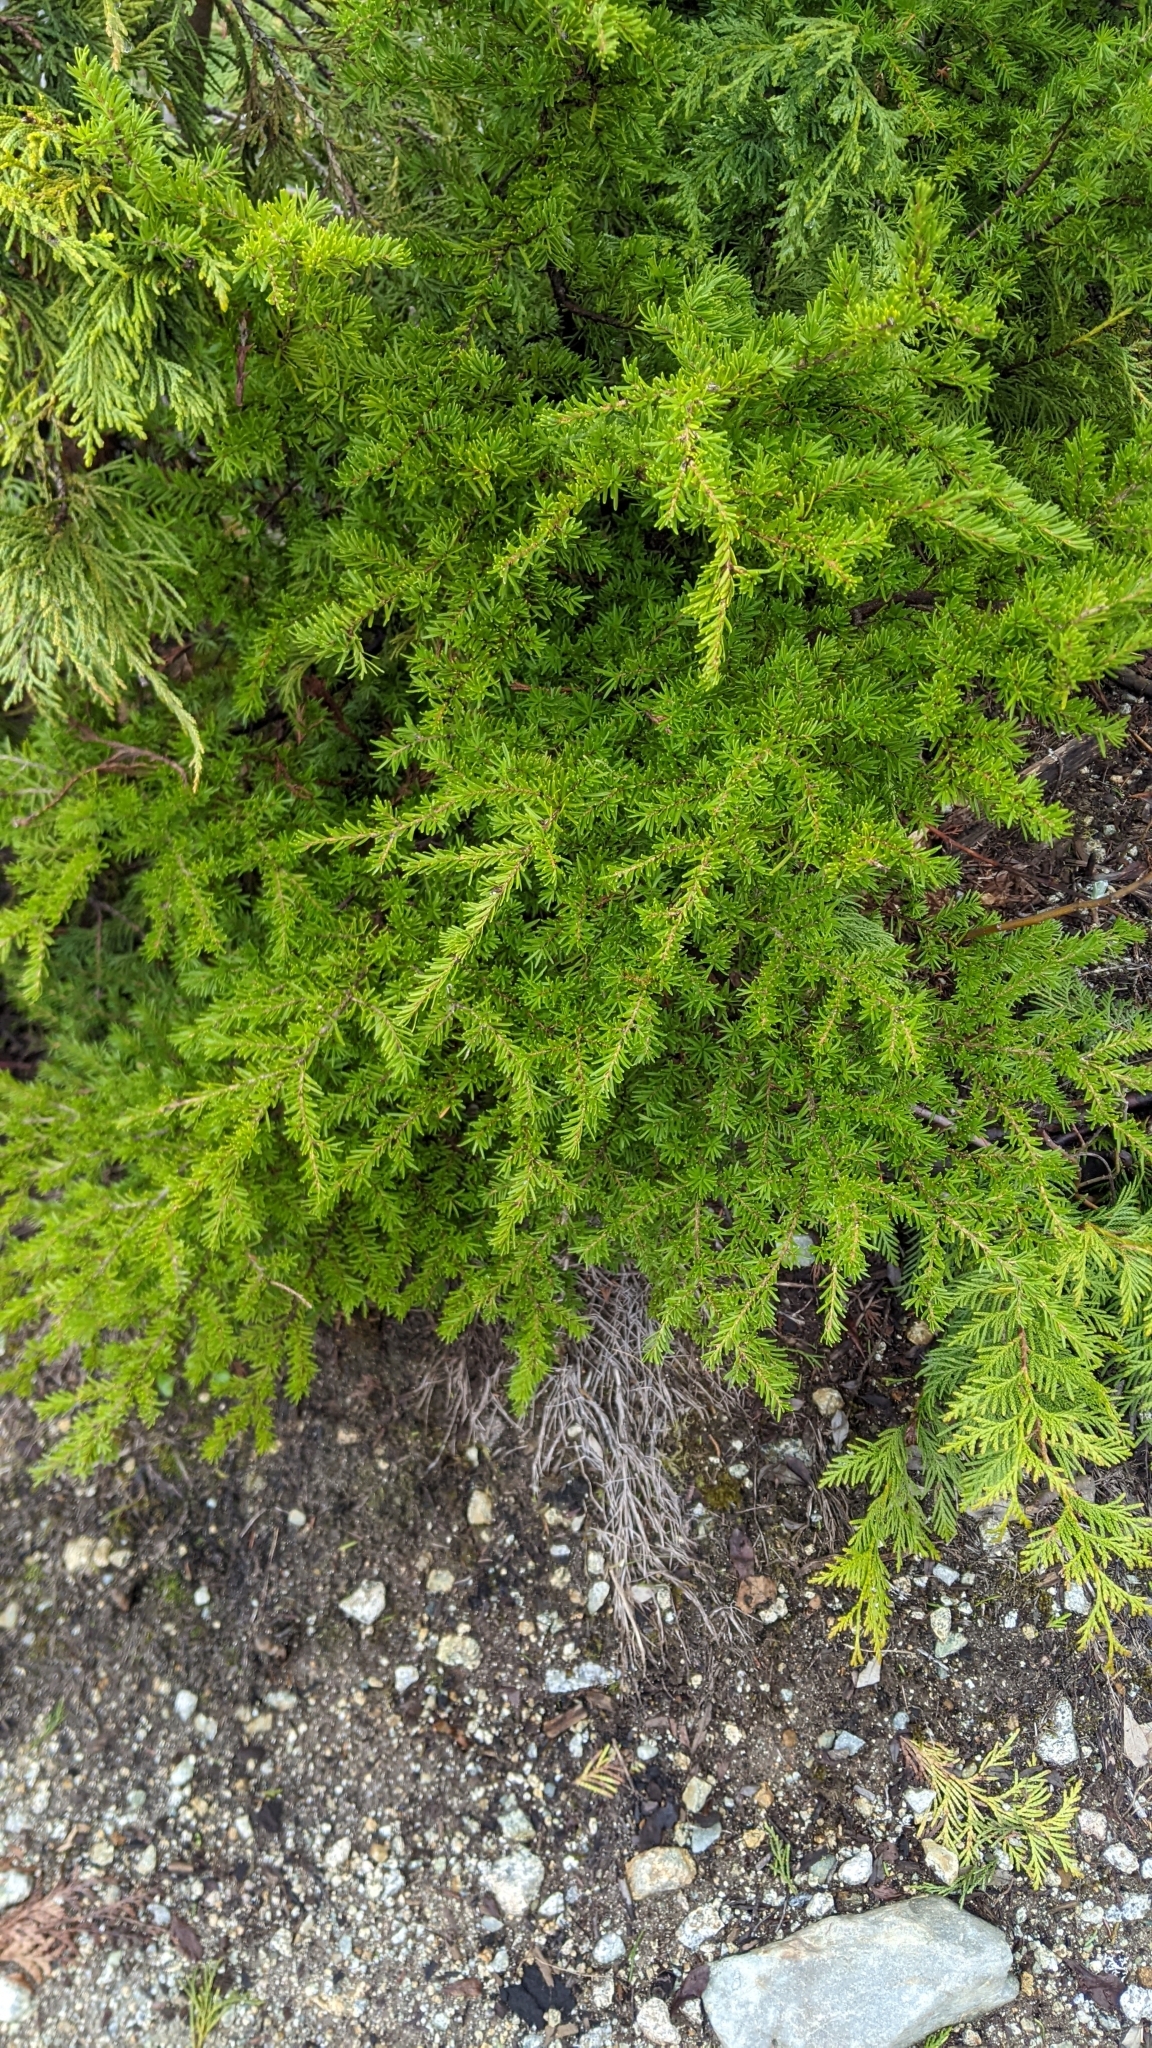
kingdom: Plantae
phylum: Tracheophyta
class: Pinopsida
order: Pinales
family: Pinaceae
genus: Tsuga
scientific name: Tsuga mertensiana
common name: Mountain hemlock
